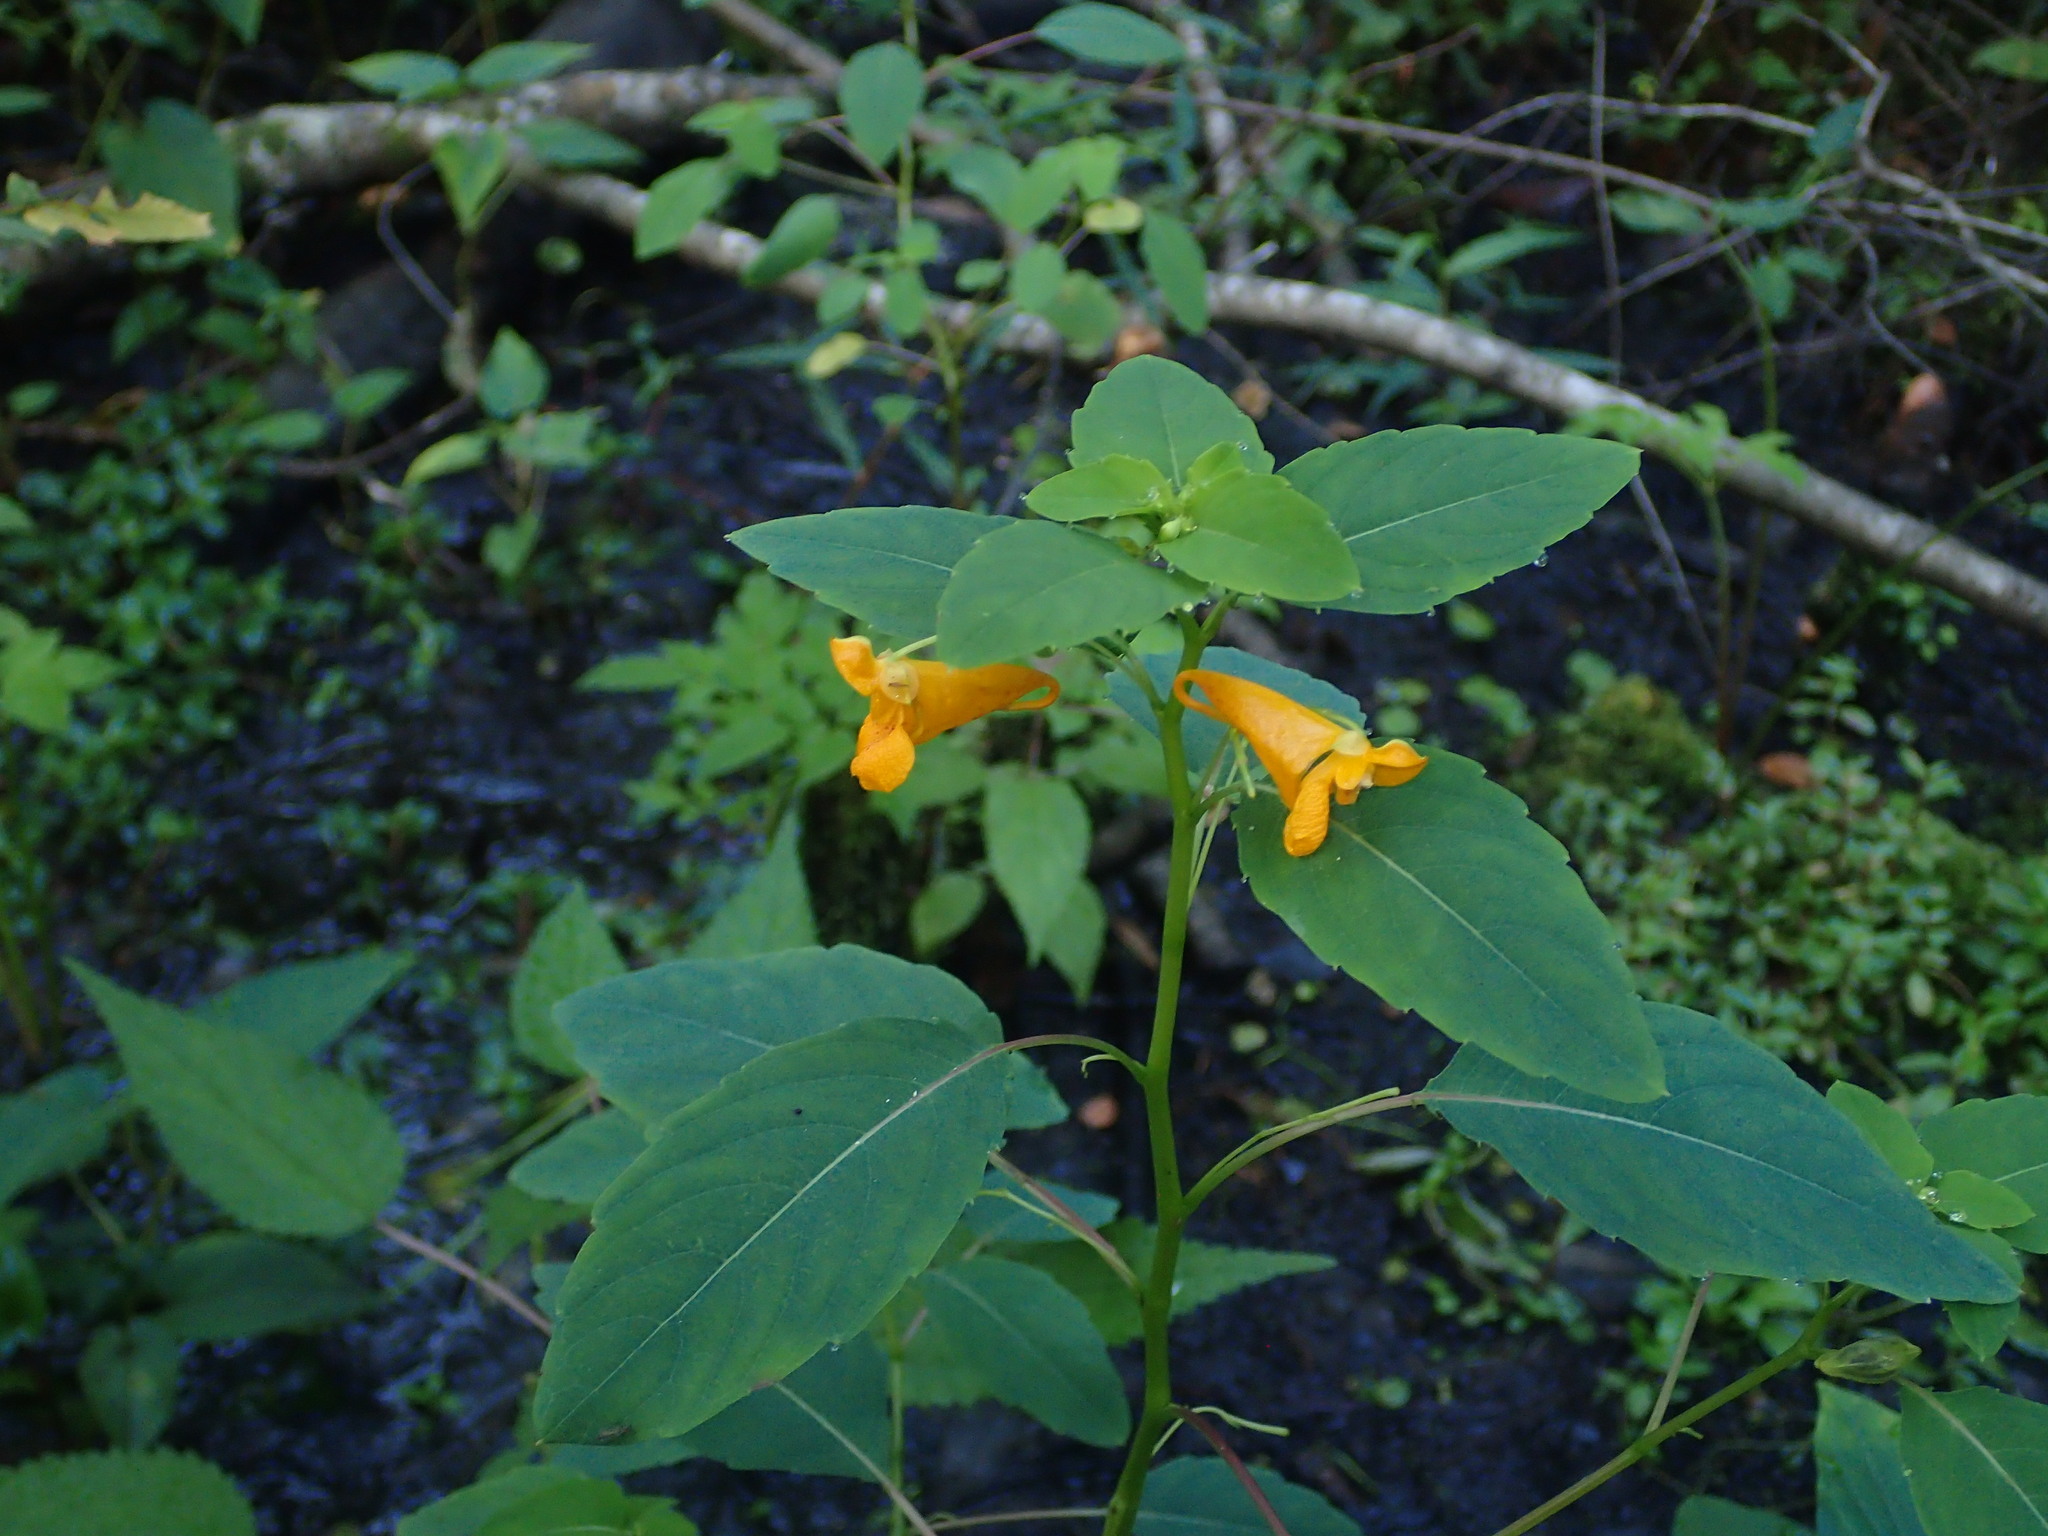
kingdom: Plantae
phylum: Tracheophyta
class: Magnoliopsida
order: Ericales
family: Balsaminaceae
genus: Impatiens
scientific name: Impatiens capensis
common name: Orange balsam
